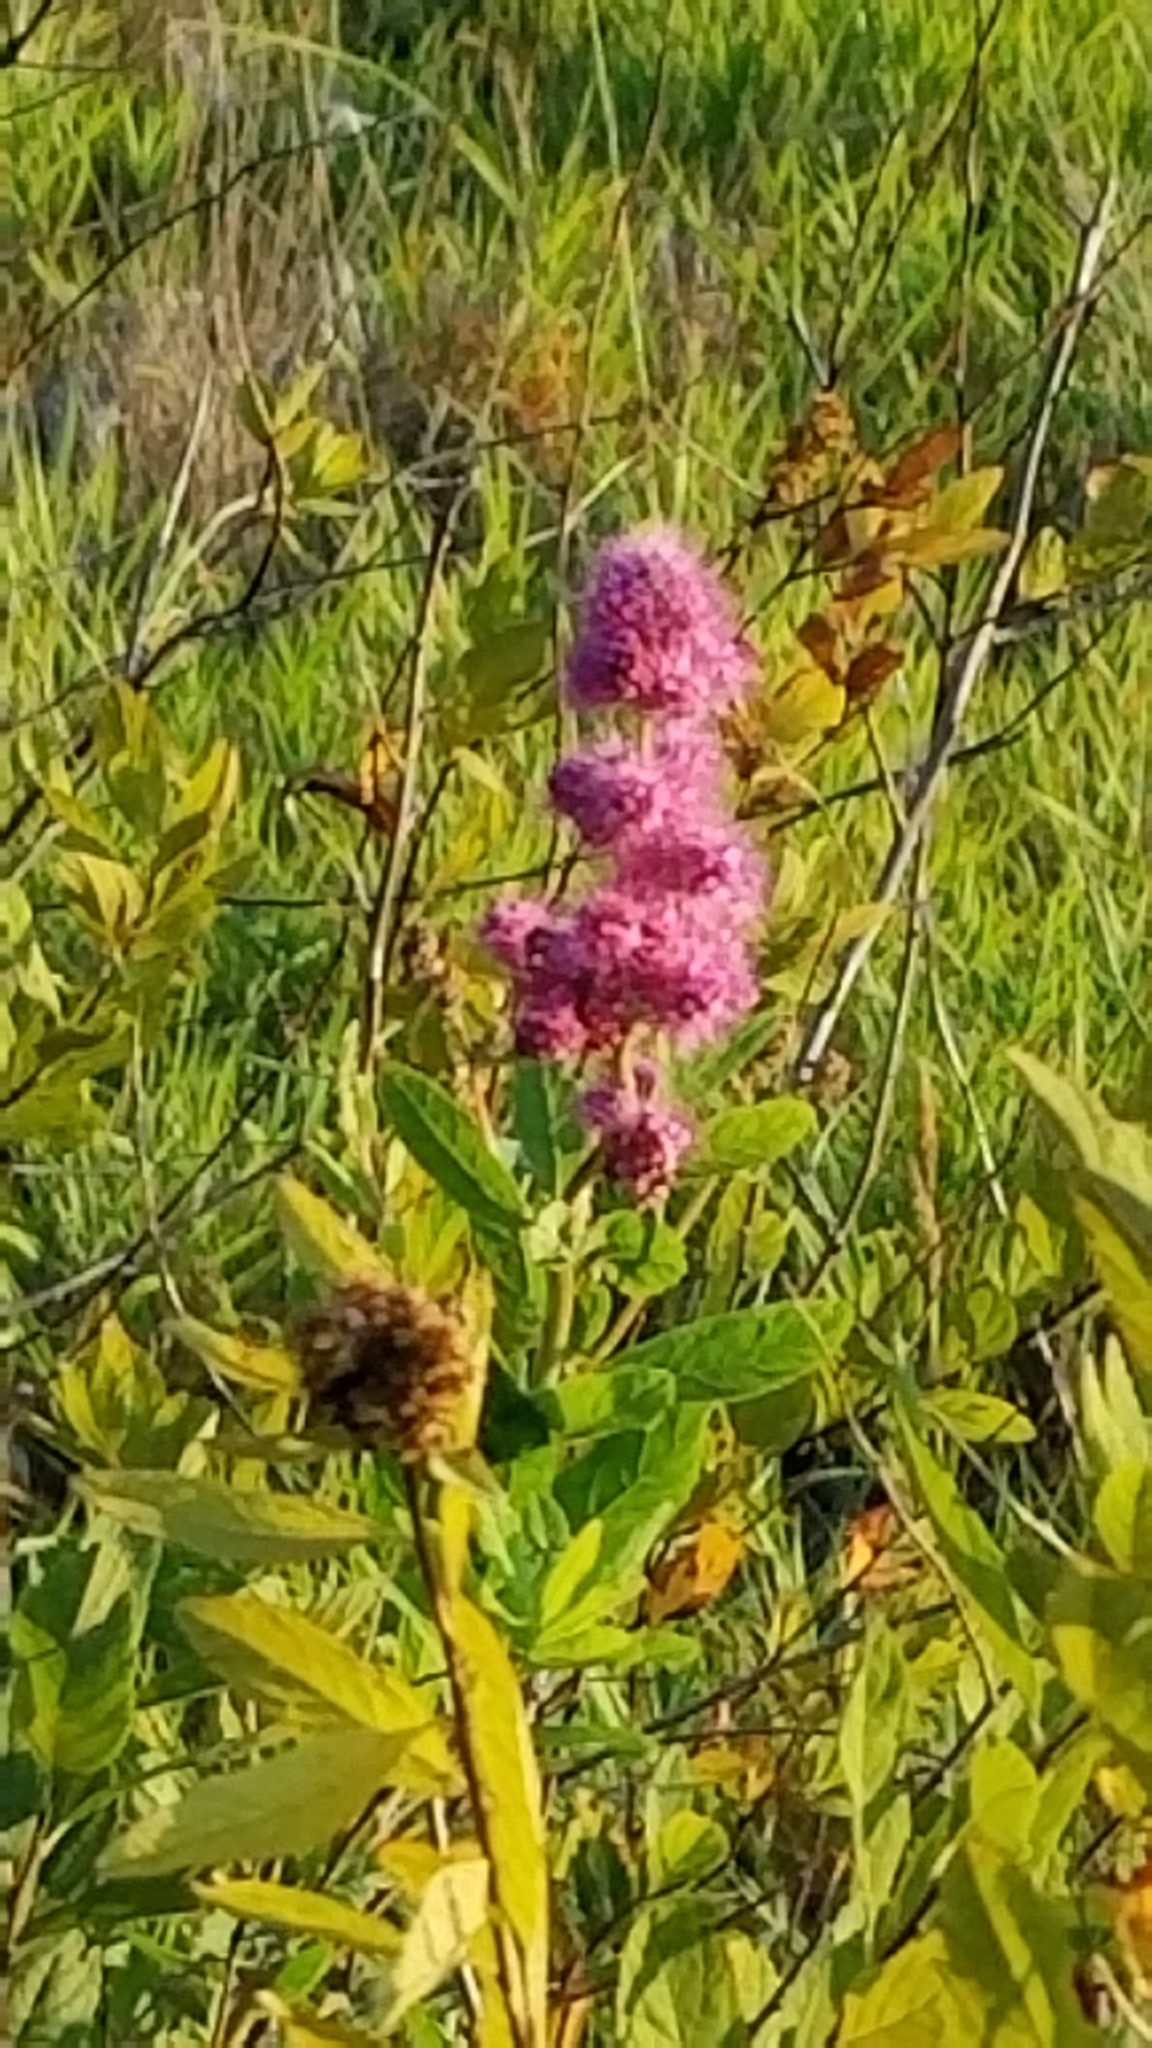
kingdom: Plantae
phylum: Tracheophyta
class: Magnoliopsida
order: Rosales
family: Rosaceae
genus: Spiraea
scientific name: Spiraea douglasii
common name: Steeplebush
